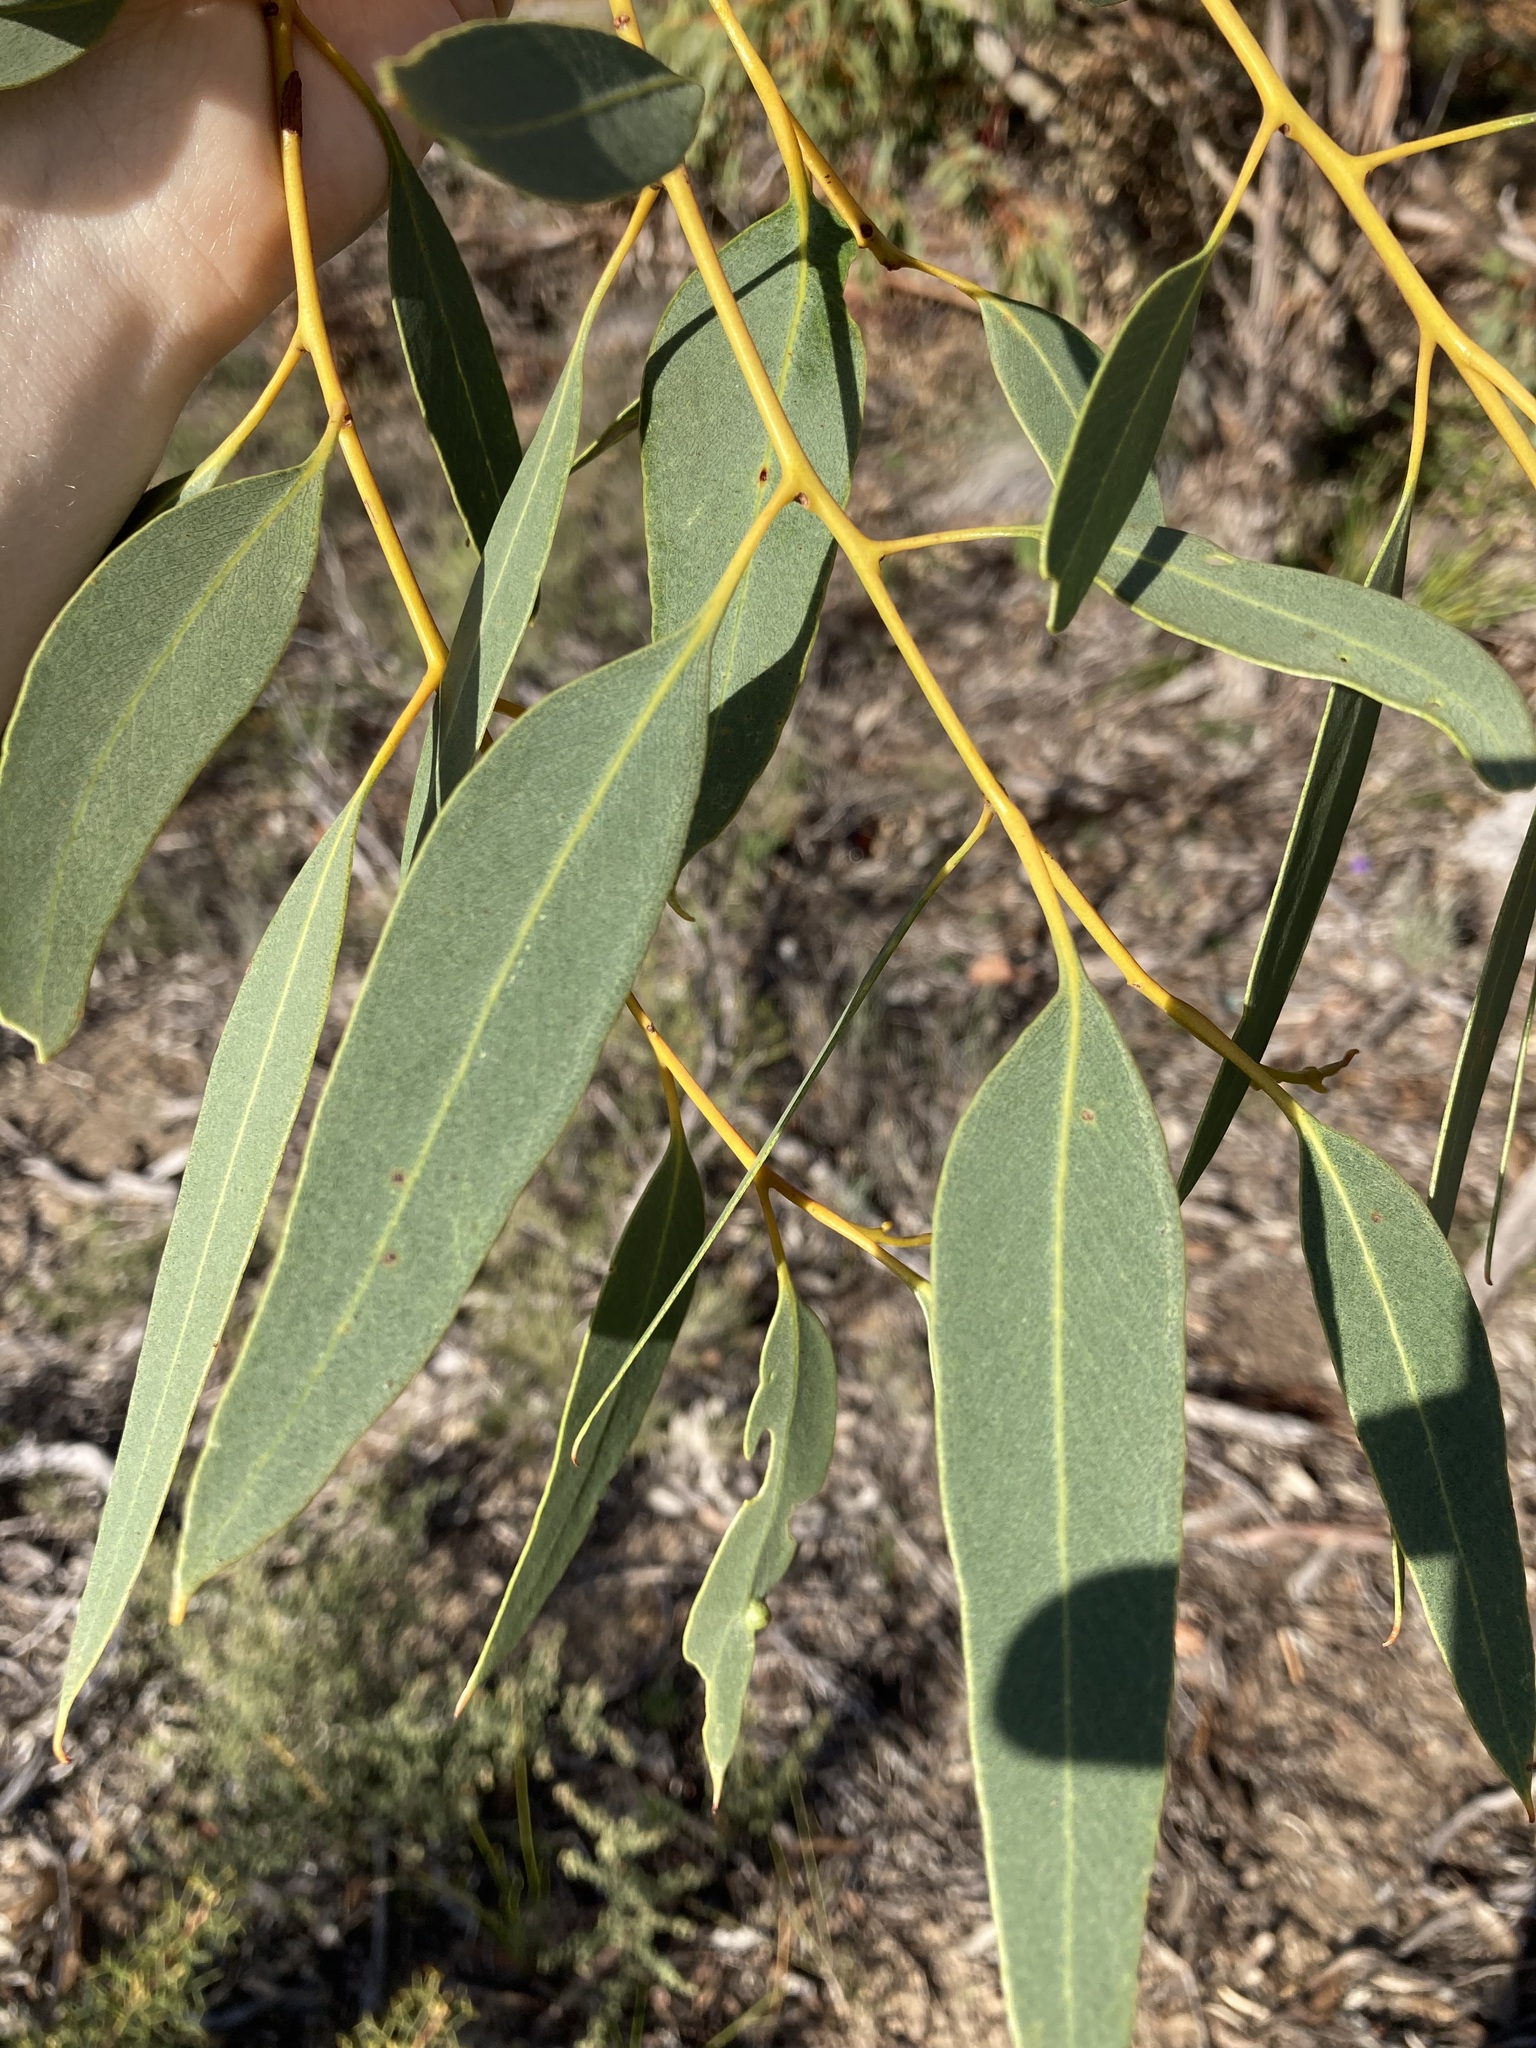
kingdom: Plantae
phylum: Tracheophyta
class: Magnoliopsida
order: Myrtales
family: Myrtaceae
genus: Eucalyptus
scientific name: Eucalyptus gittinsii
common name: Northern sandplain mallee
